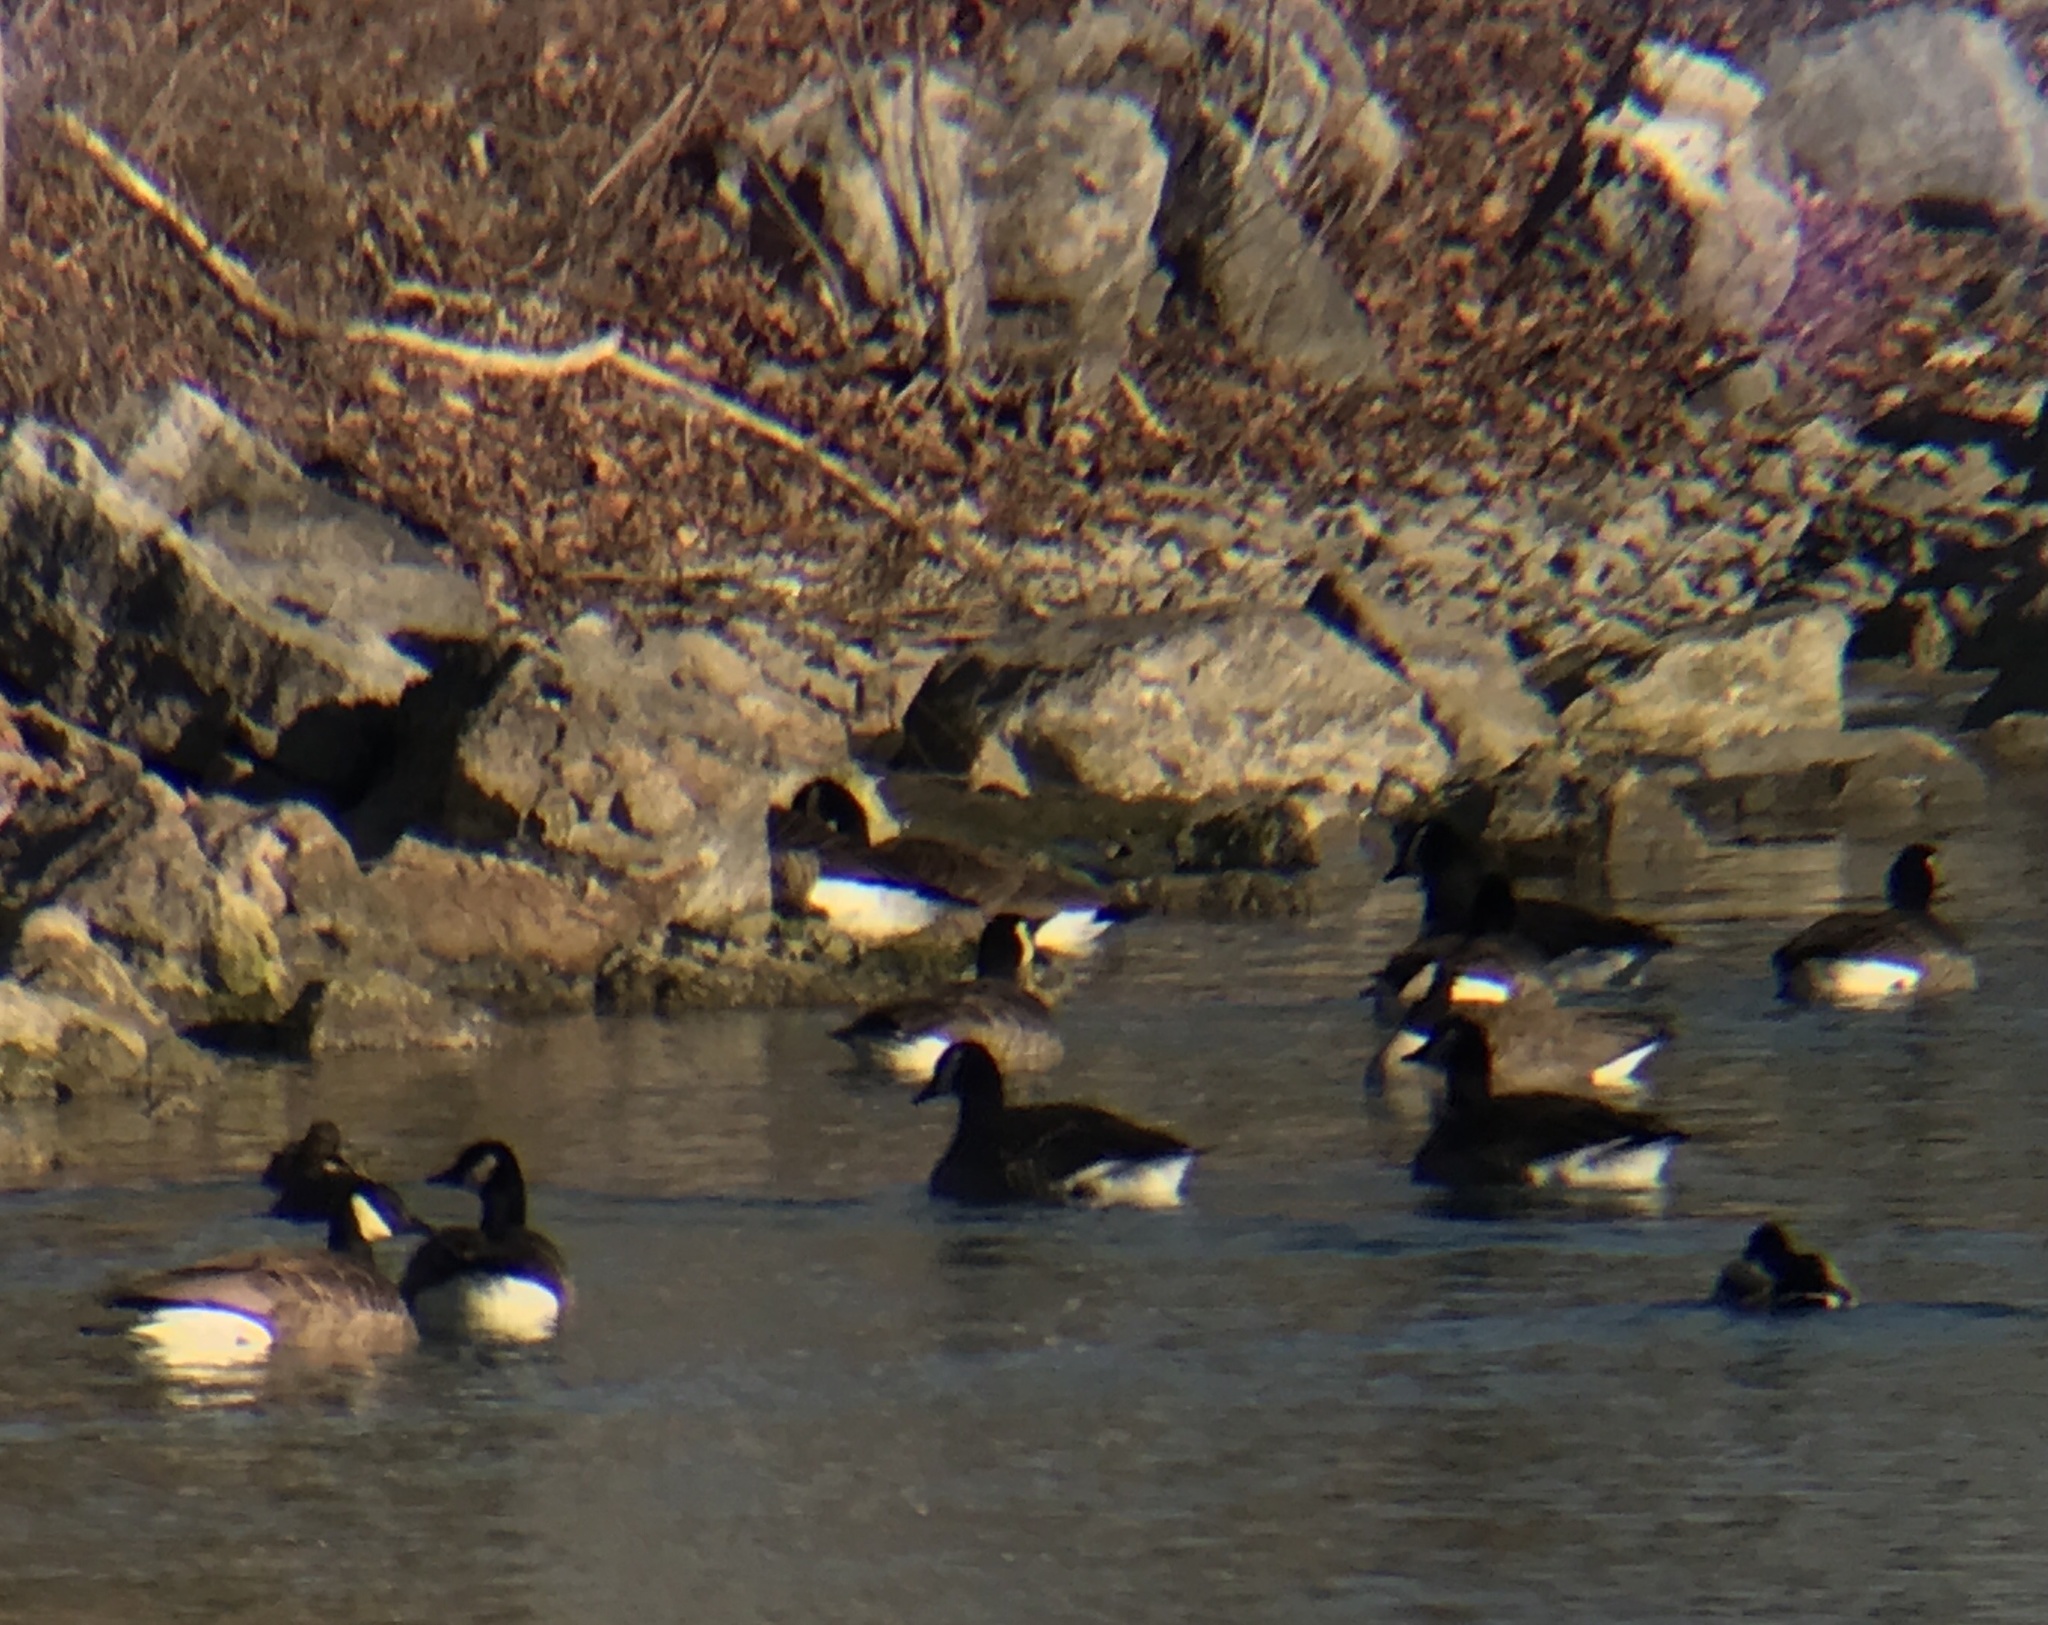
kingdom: Animalia
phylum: Chordata
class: Aves
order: Anseriformes
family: Anatidae
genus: Branta
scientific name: Branta canadensis
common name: Canada goose
